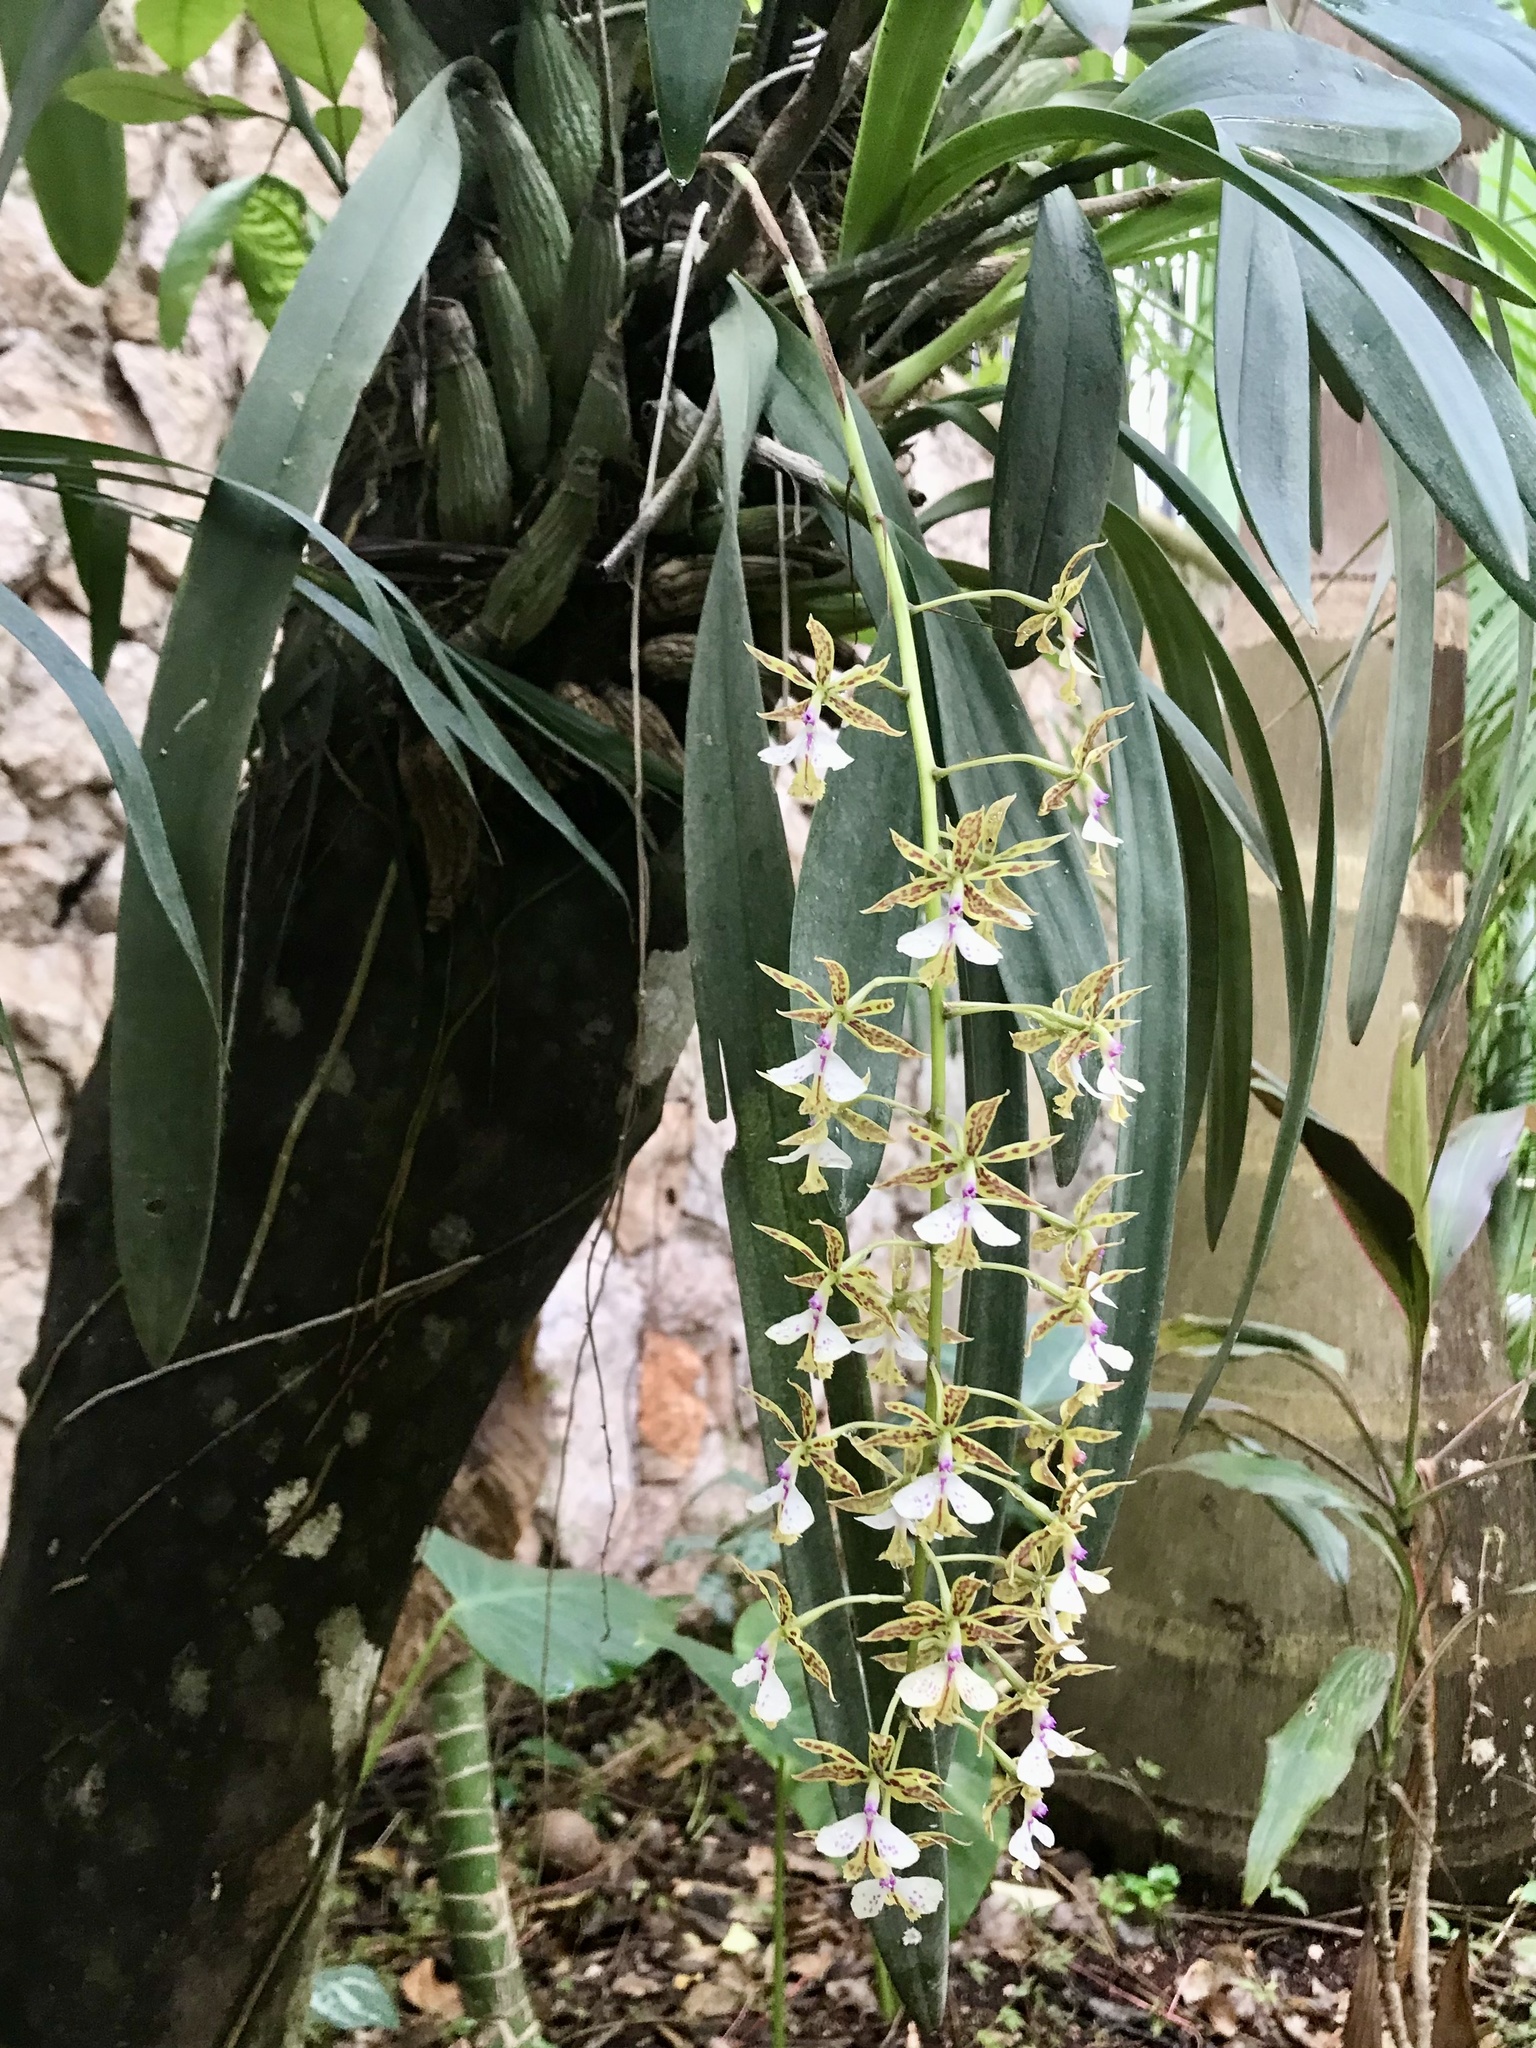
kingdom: Plantae
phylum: Tracheophyta
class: Liliopsida
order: Asparagales
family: Orchidaceae
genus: Epidendrum
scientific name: Epidendrum stamfordianum
